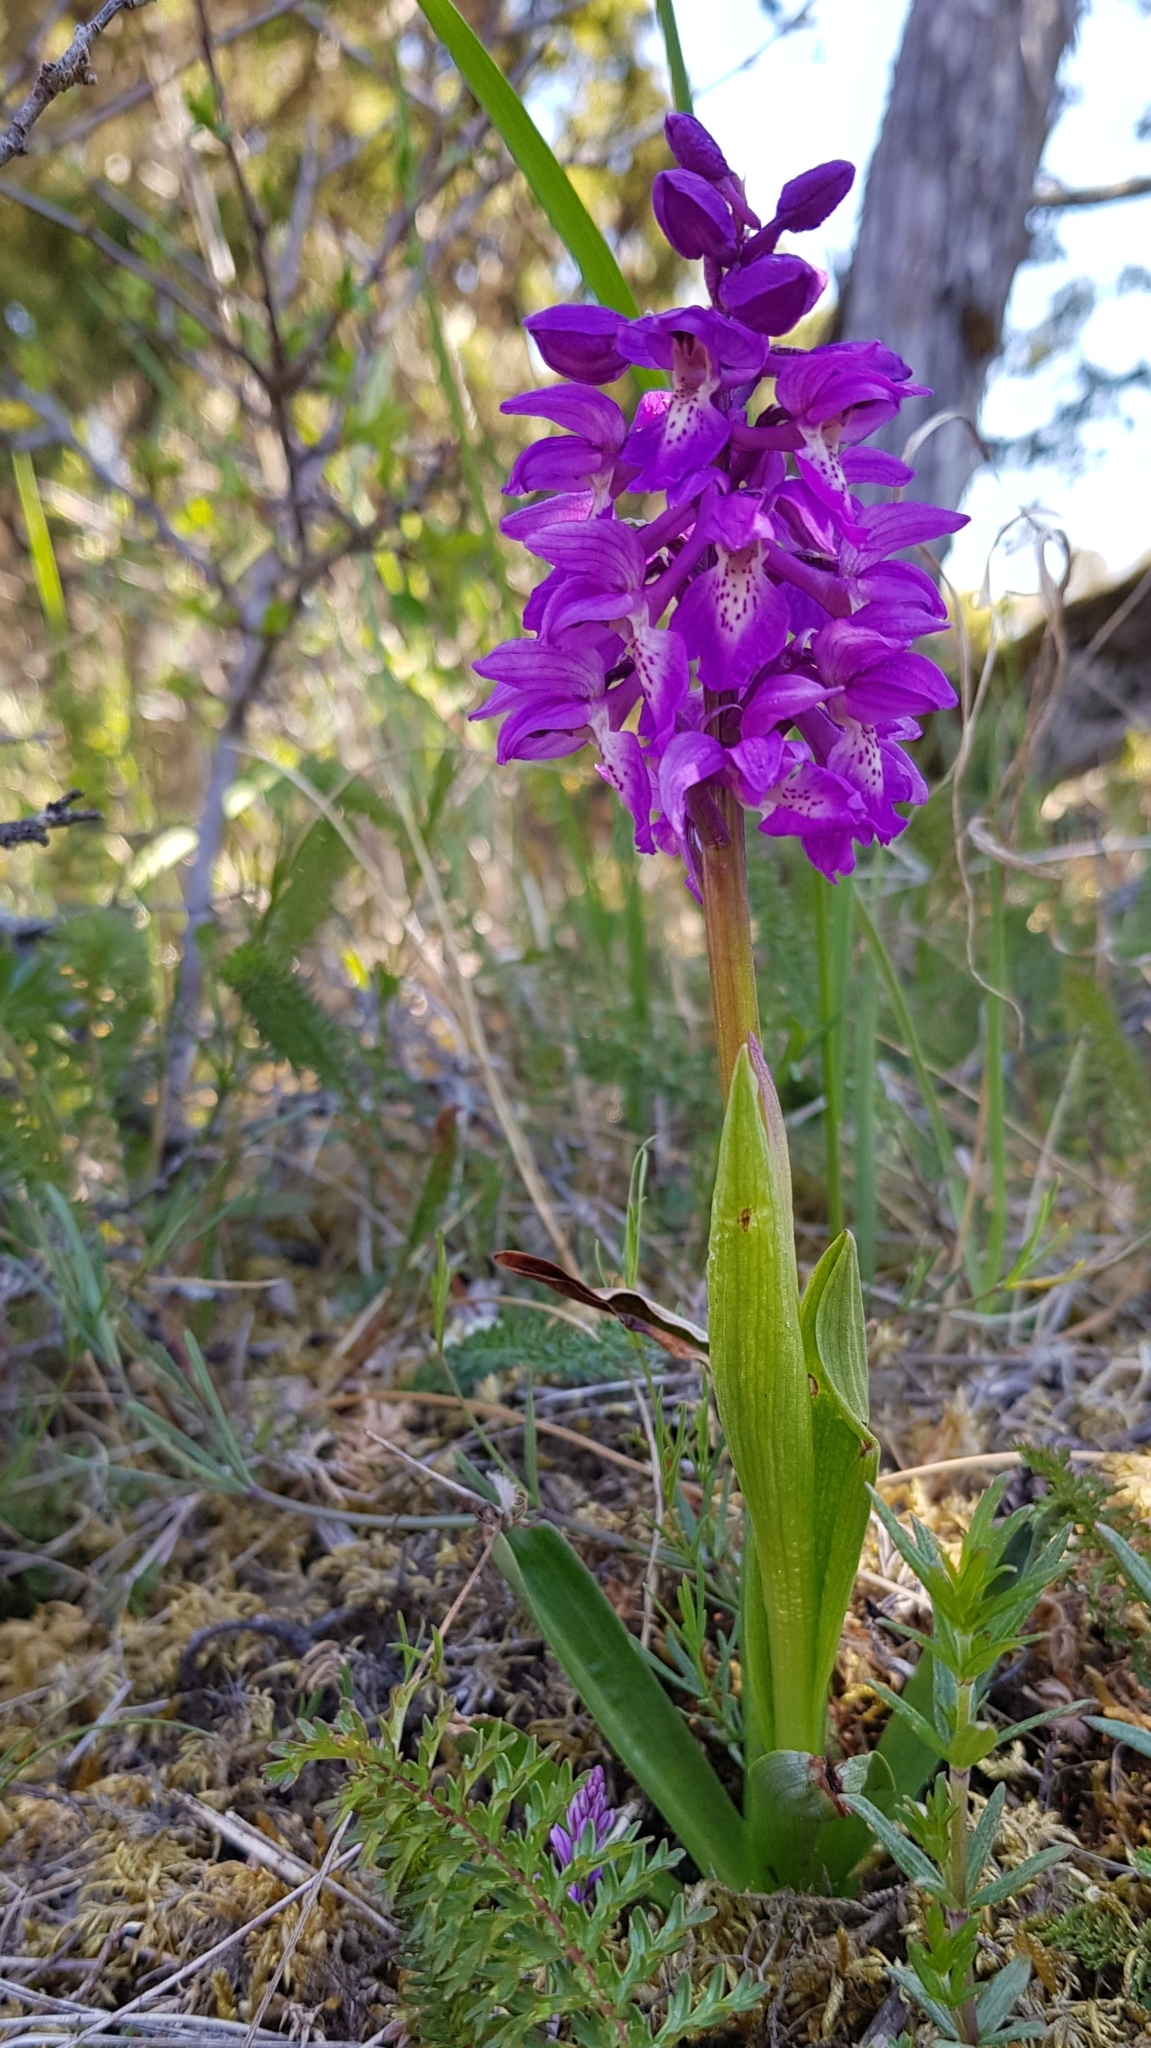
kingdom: Plantae
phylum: Tracheophyta
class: Liliopsida
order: Asparagales
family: Orchidaceae
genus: Orchis
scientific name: Orchis mascula
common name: Early-purple orchid
